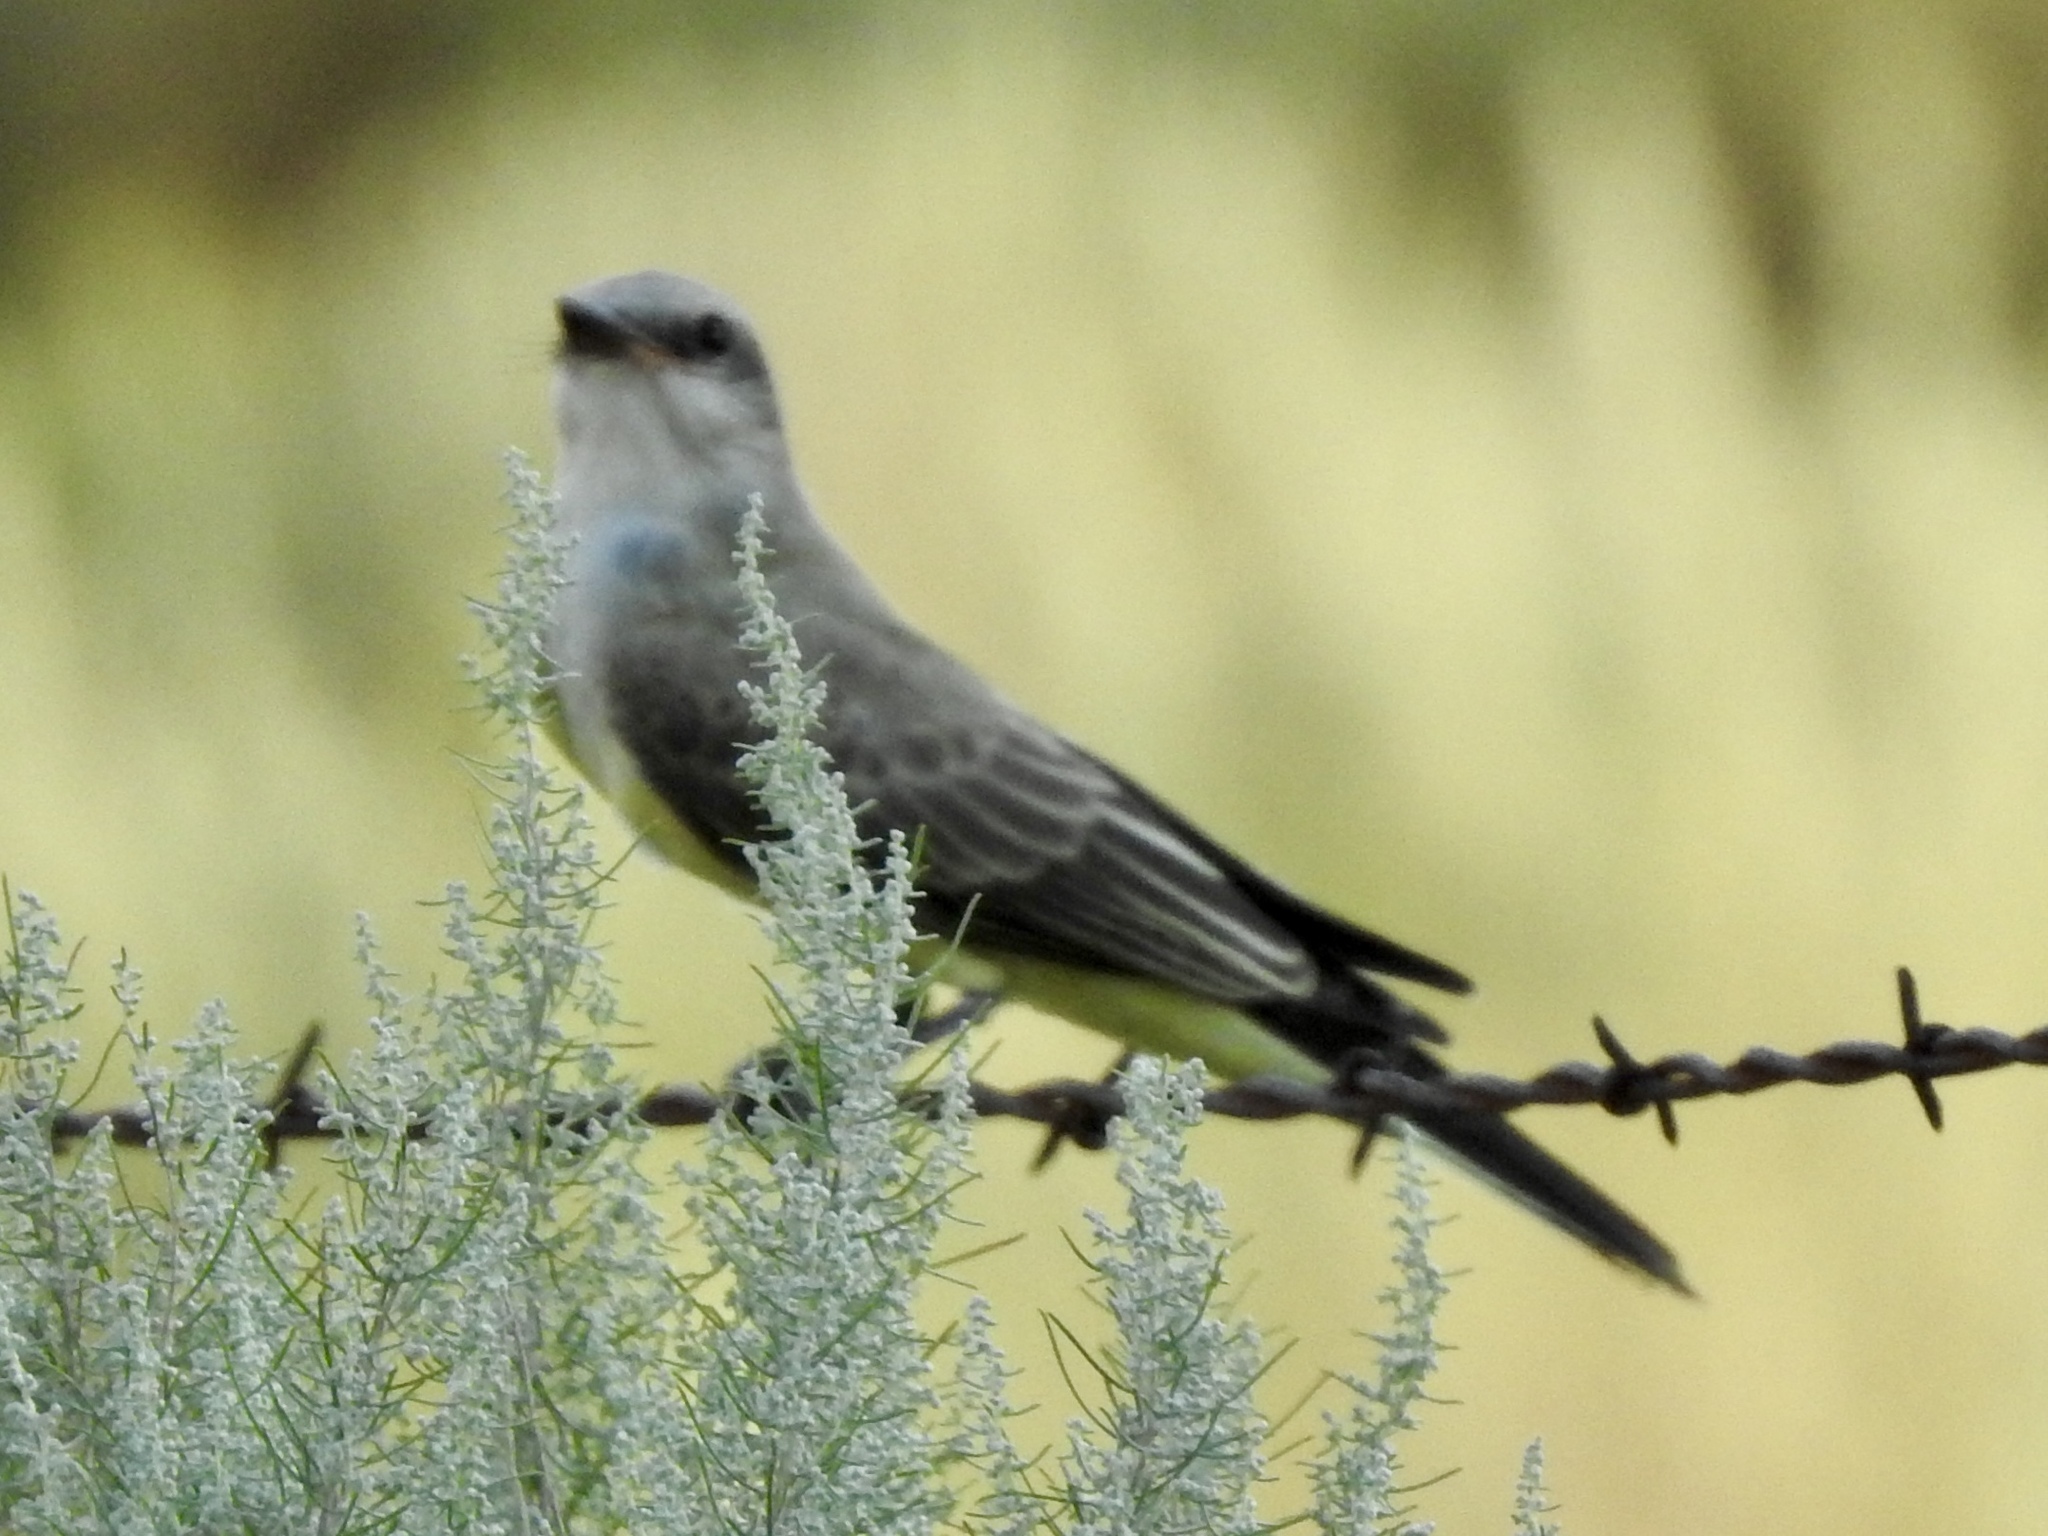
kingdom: Animalia
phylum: Chordata
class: Aves
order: Passeriformes
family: Tyrannidae
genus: Tyrannus
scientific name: Tyrannus verticalis
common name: Western kingbird
